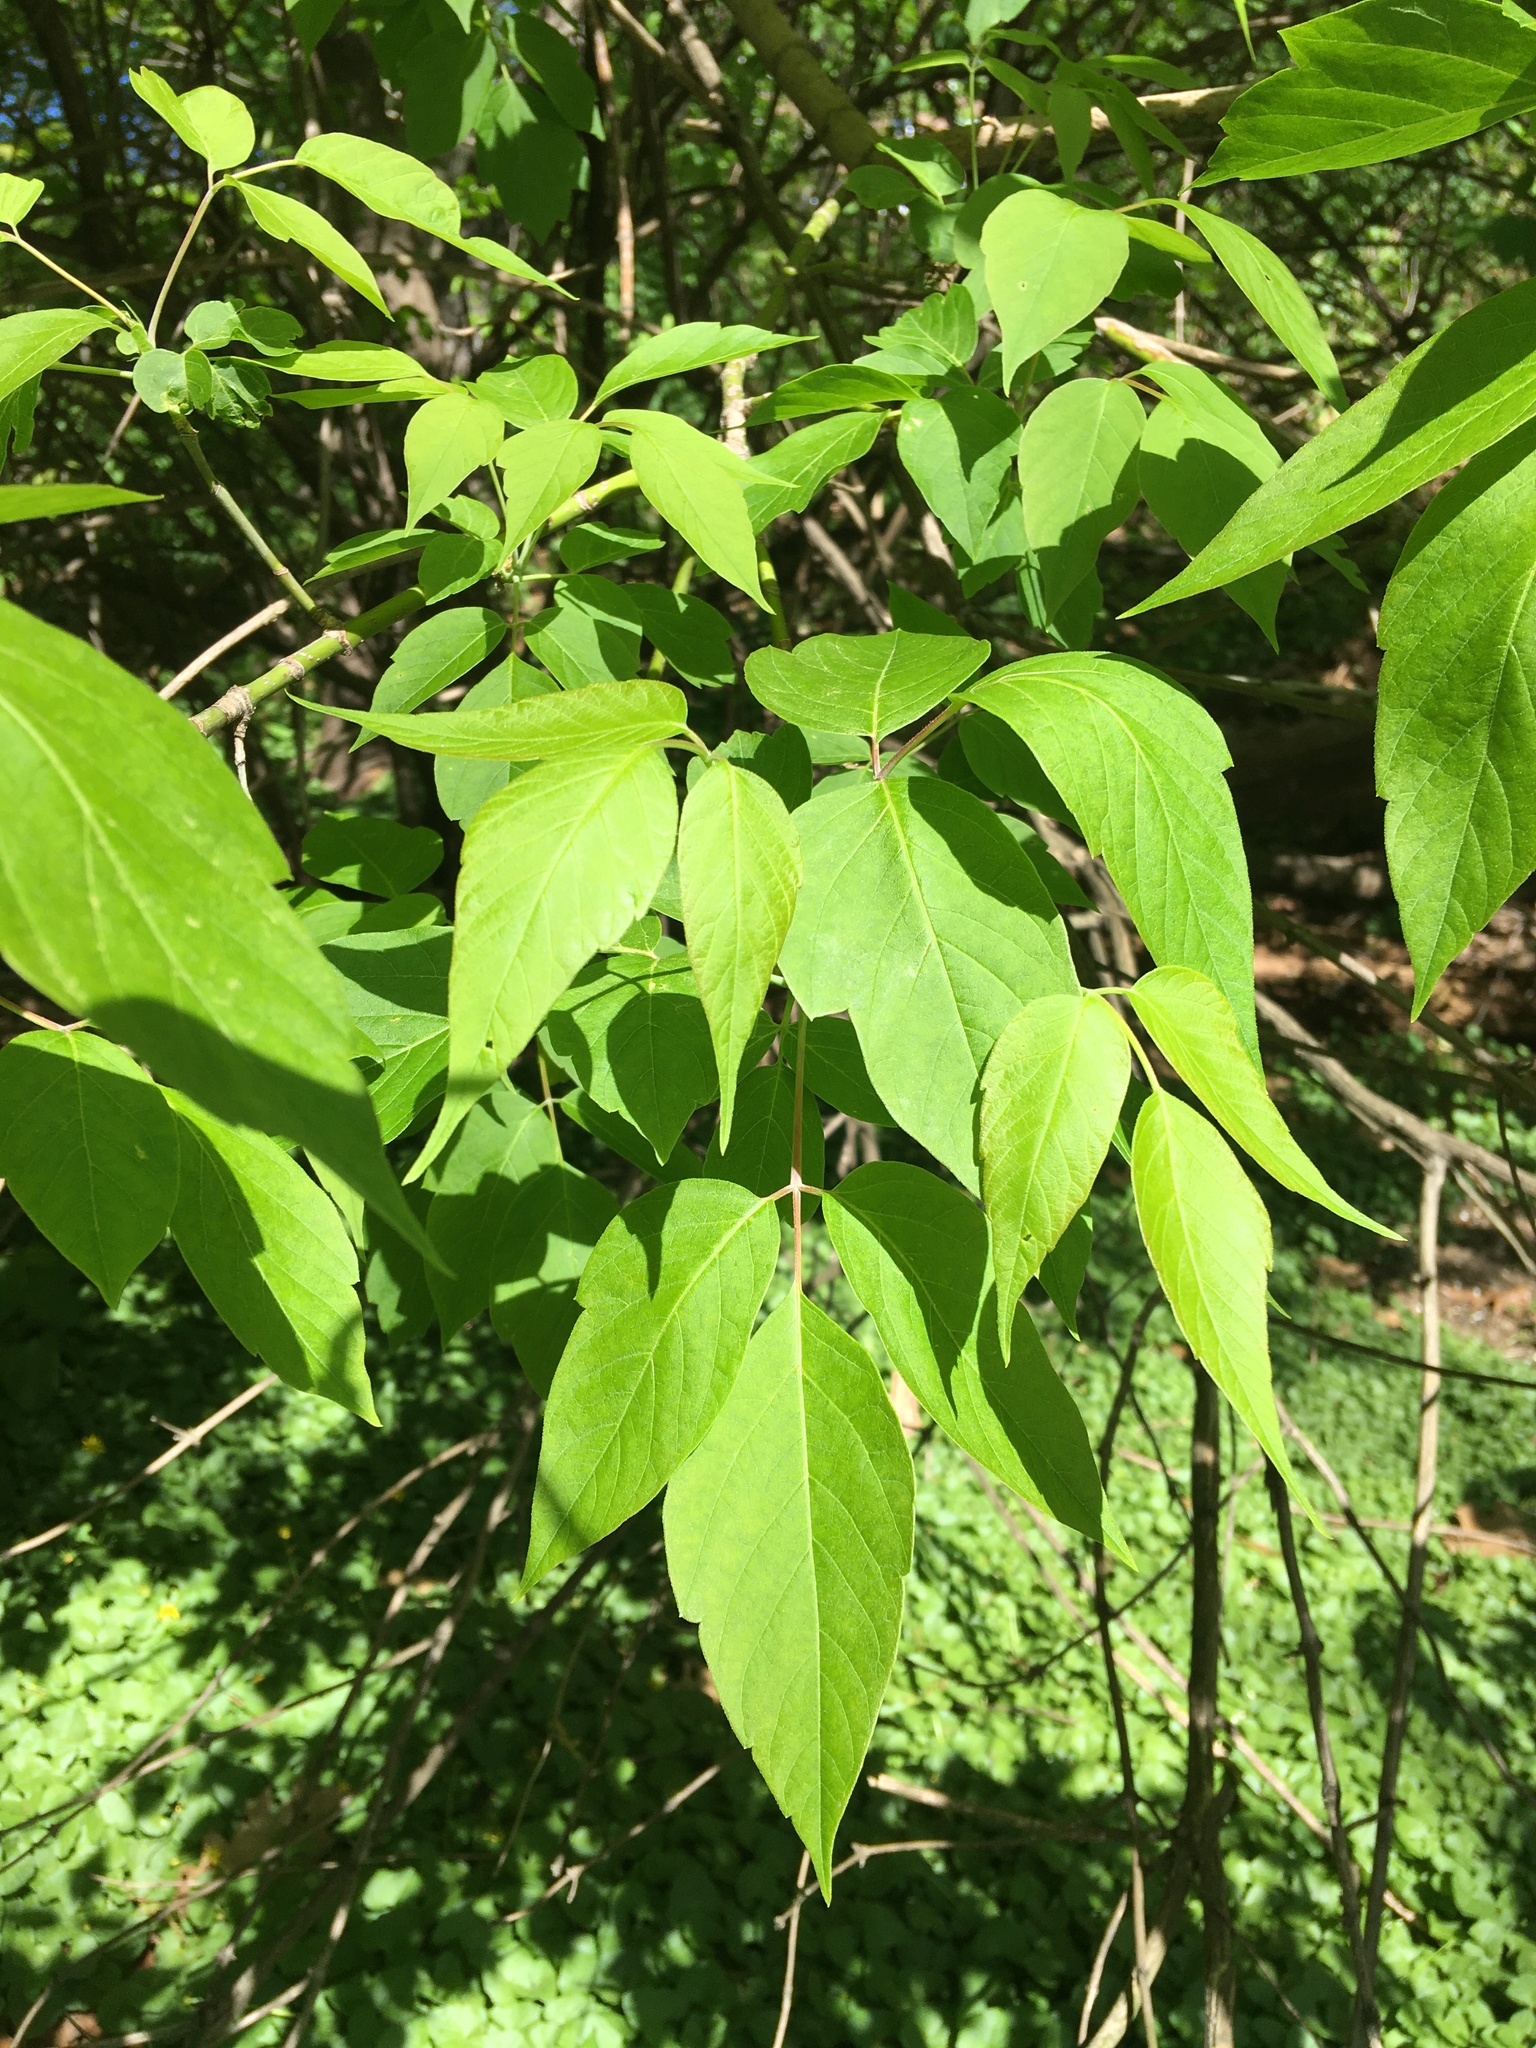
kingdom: Plantae
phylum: Tracheophyta
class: Magnoliopsida
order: Sapindales
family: Sapindaceae
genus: Acer
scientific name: Acer negundo
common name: Ashleaf maple
